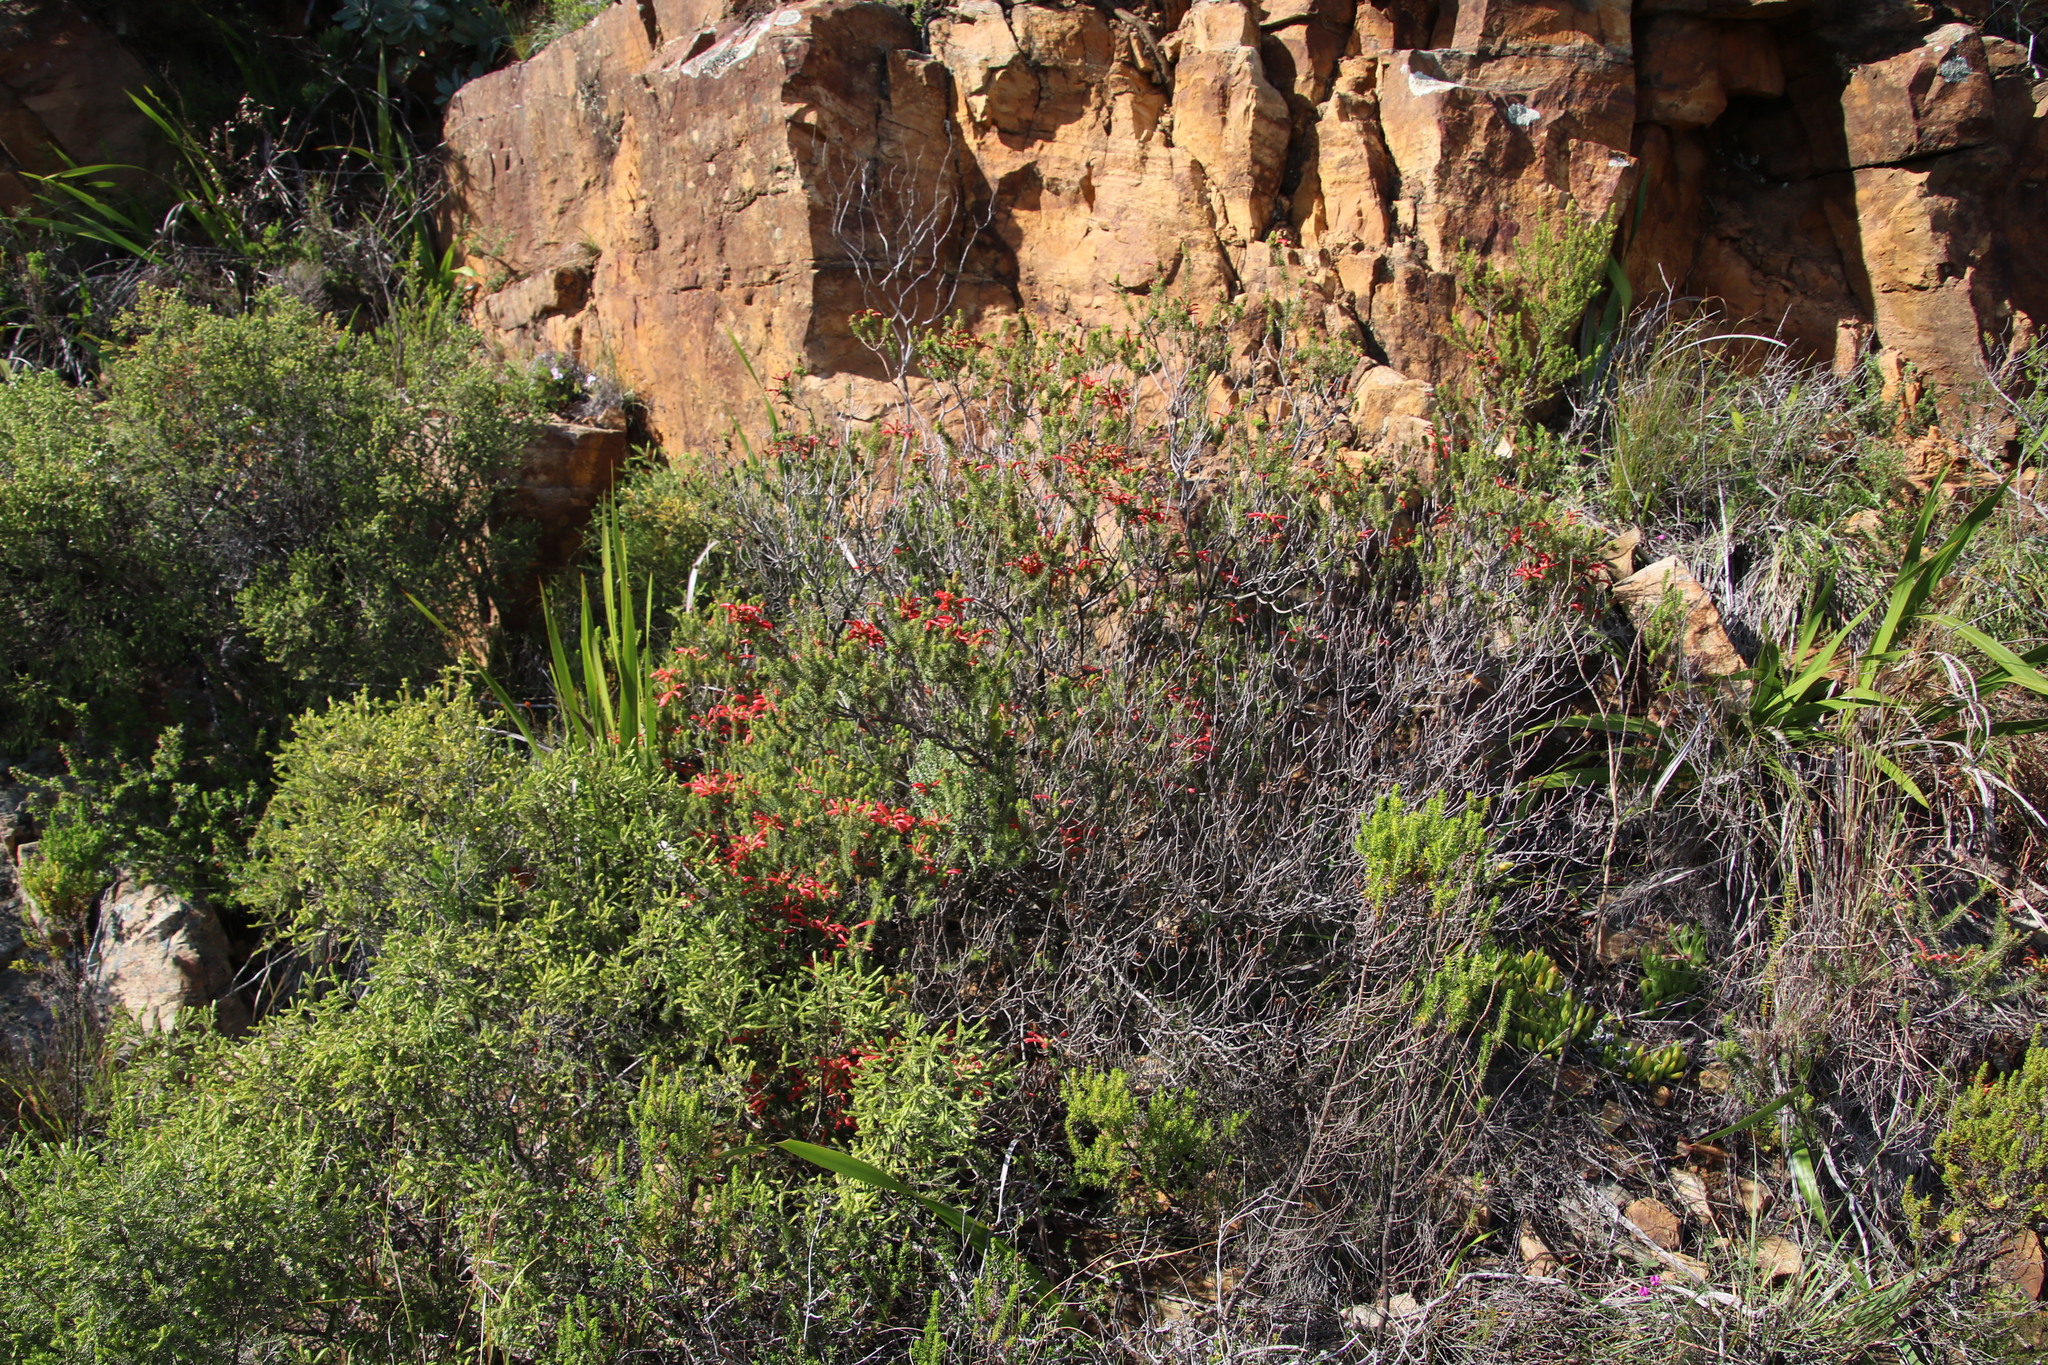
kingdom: Plantae
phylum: Tracheophyta
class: Magnoliopsida
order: Ericales
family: Ericaceae
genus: Erica
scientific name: Erica abietina
